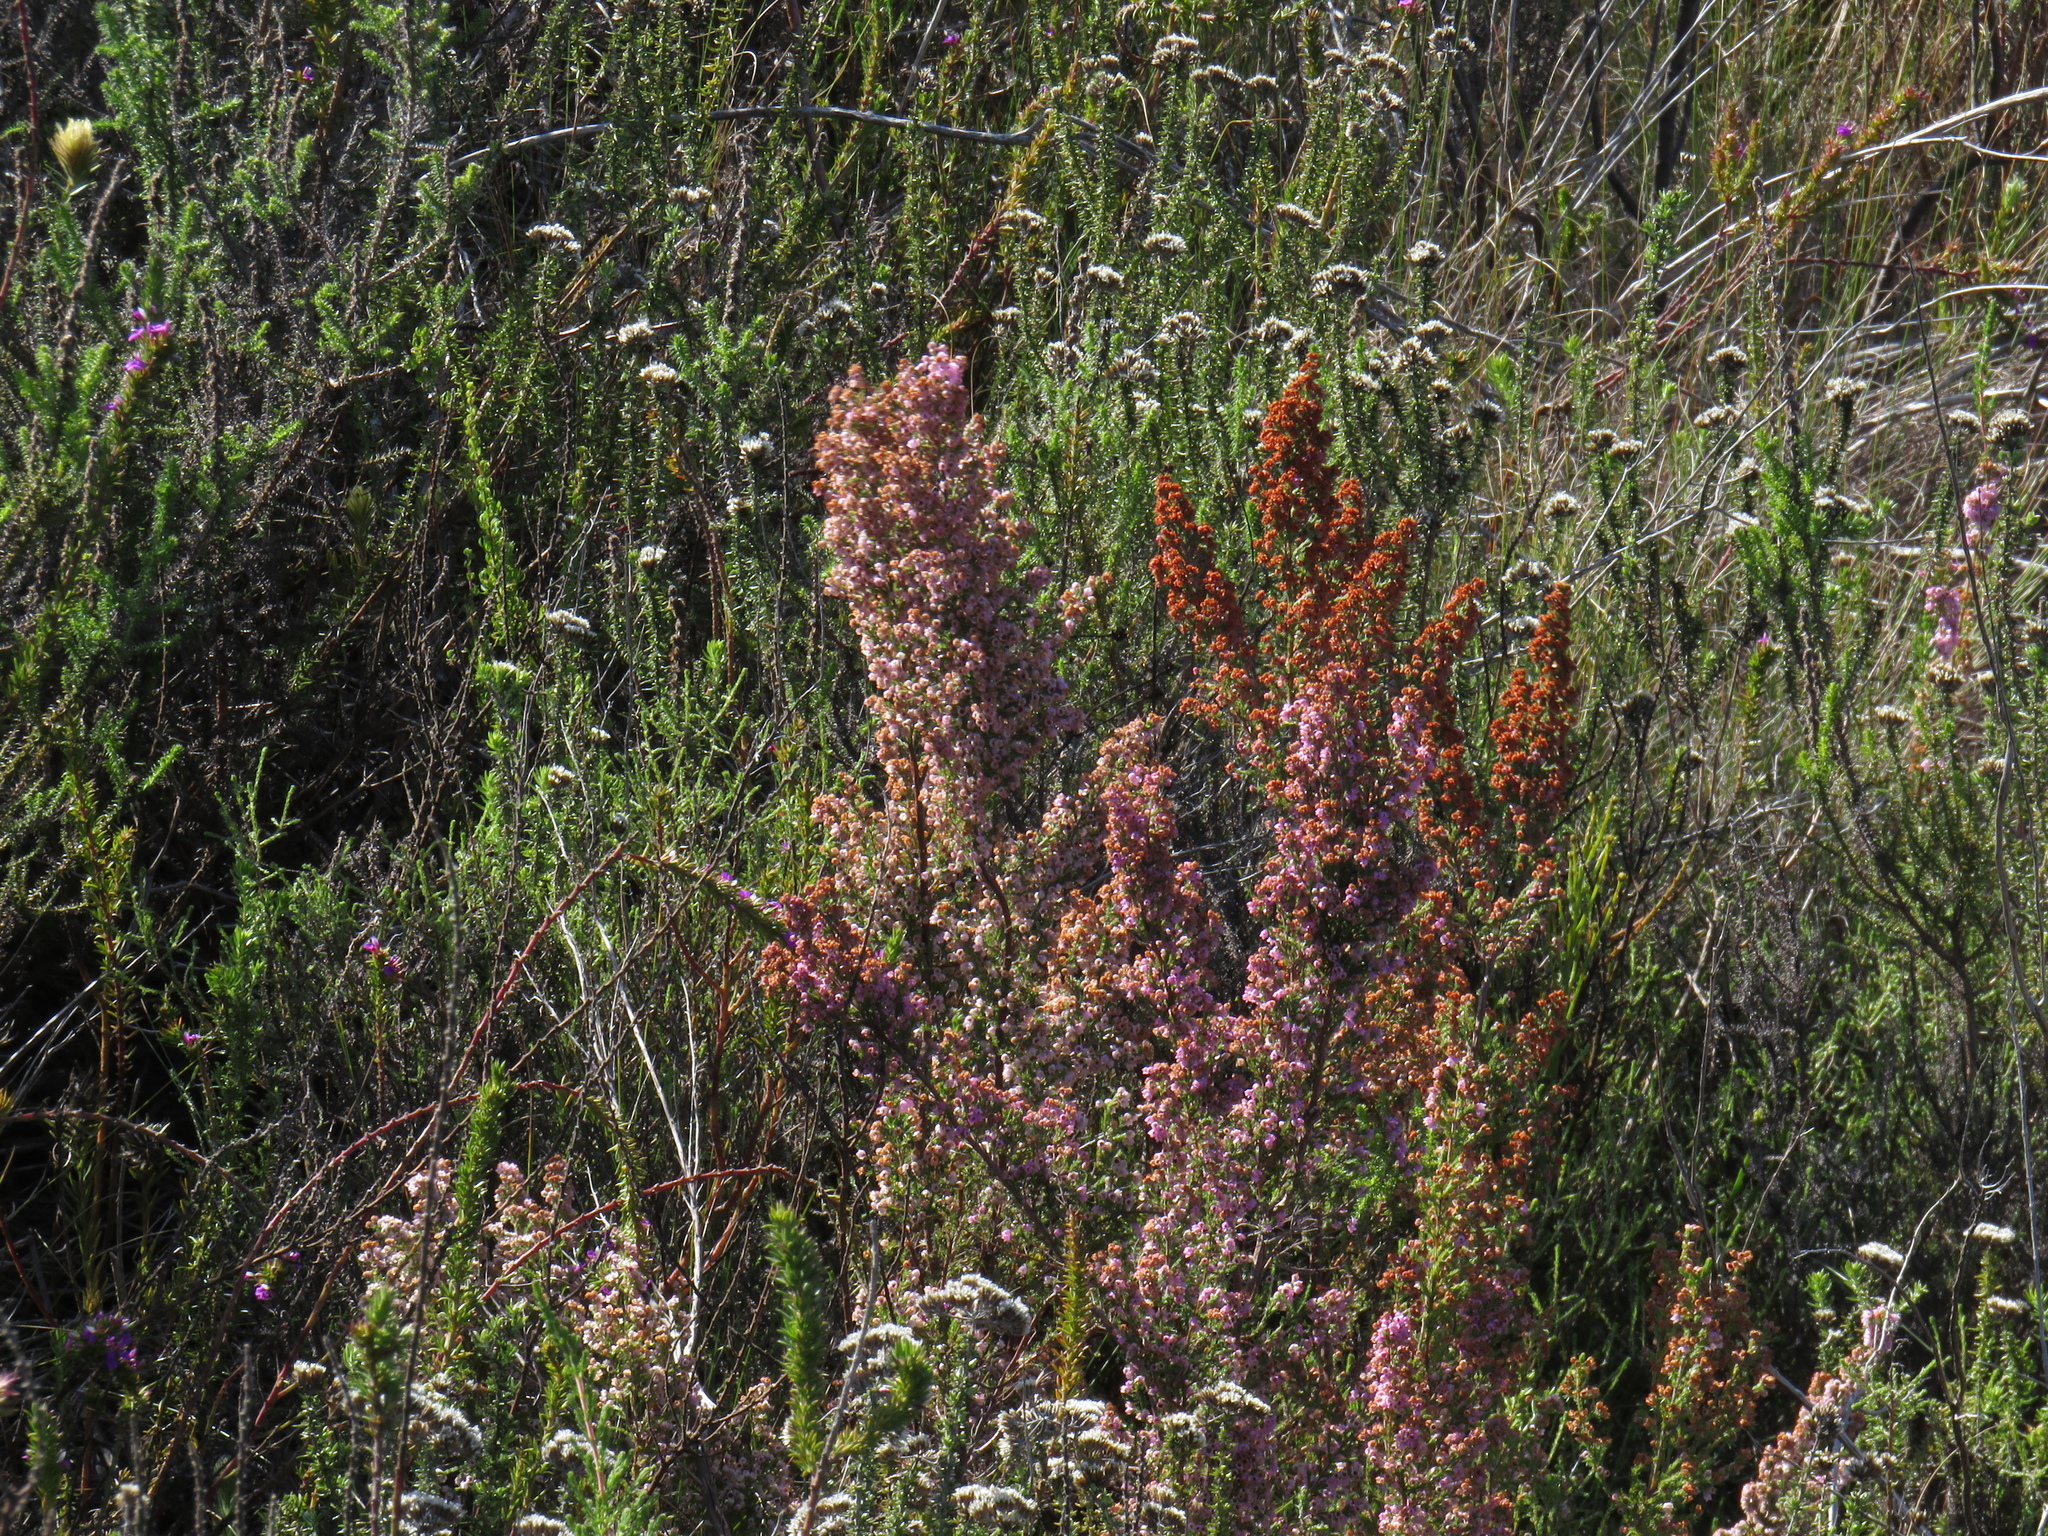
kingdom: Plantae
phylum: Tracheophyta
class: Magnoliopsida
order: Ericales
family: Ericaceae
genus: Erica
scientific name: Erica mauritanica
